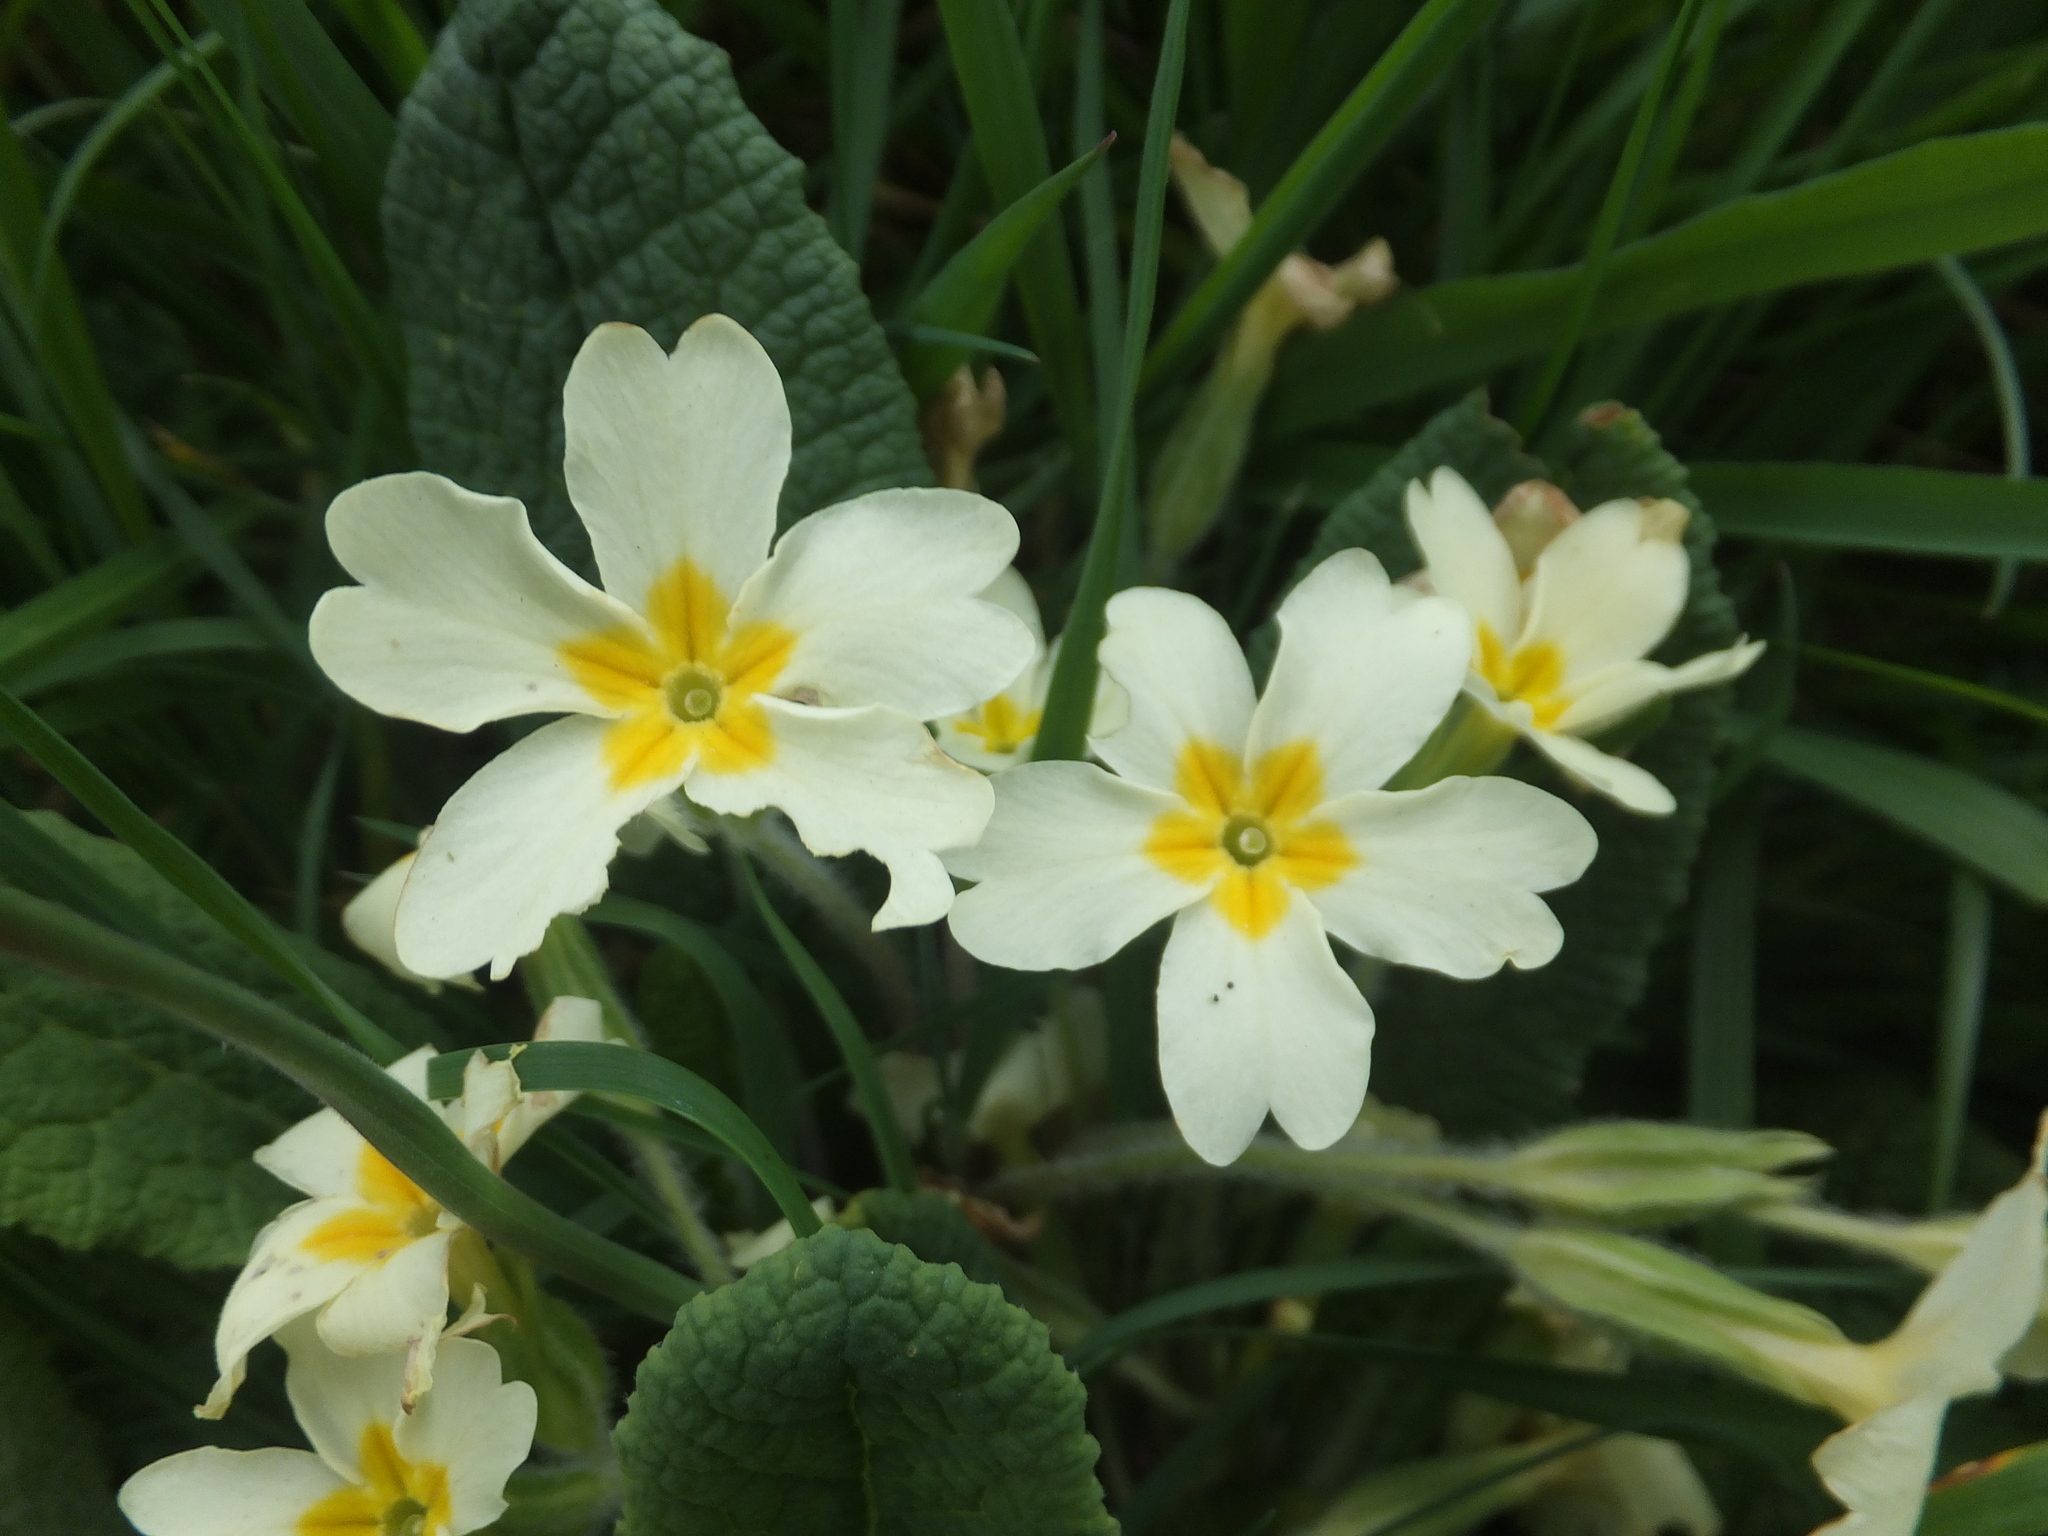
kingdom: Plantae
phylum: Tracheophyta
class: Magnoliopsida
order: Ericales
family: Primulaceae
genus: Primula
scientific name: Primula vulgaris
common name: Primrose
